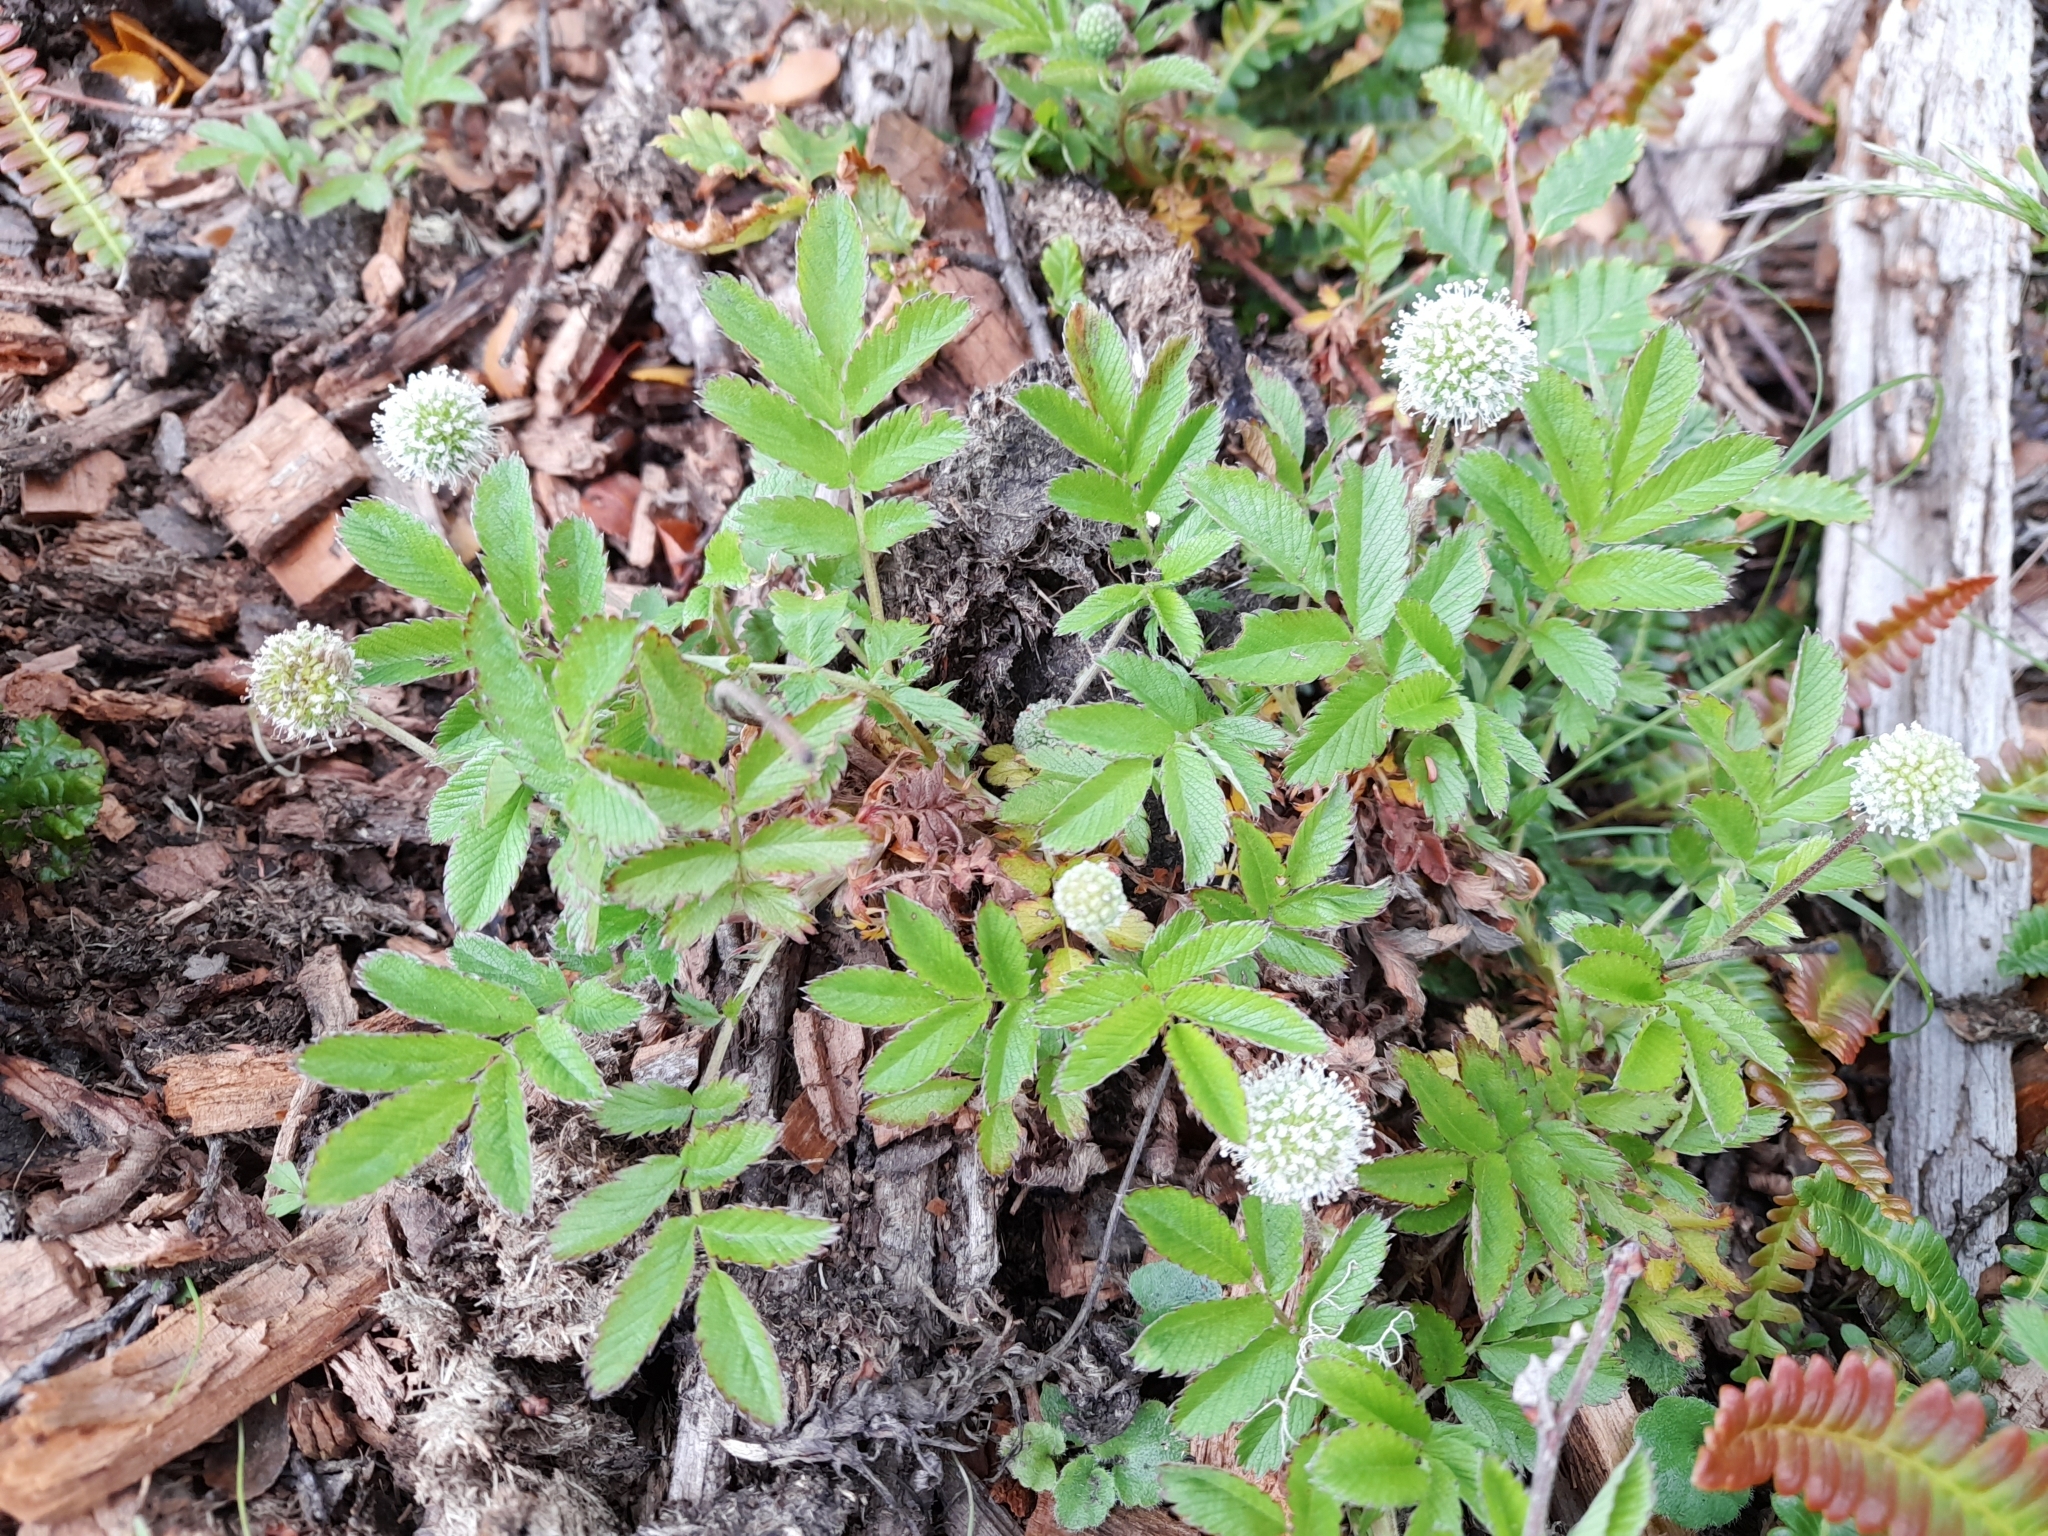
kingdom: Plantae
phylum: Tracheophyta
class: Magnoliopsida
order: Rosales
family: Rosaceae
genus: Acaena
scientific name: Acaena ovalifolia
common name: Two-spined acaena
